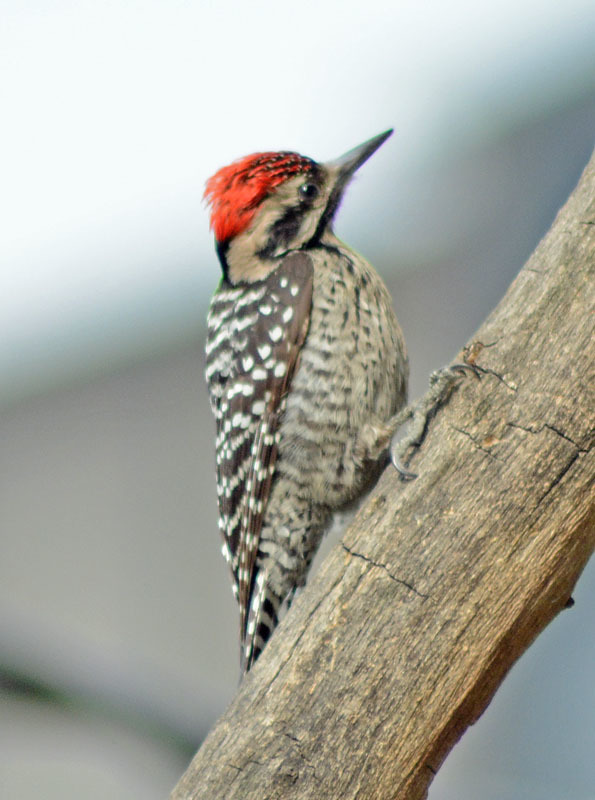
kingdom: Animalia
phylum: Chordata
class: Aves
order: Piciformes
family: Picidae
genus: Dryobates
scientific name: Dryobates scalaris
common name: Ladder-backed woodpecker
